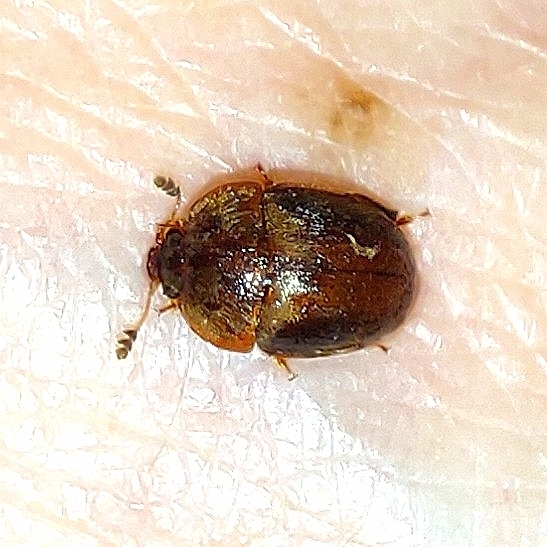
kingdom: Animalia
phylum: Arthropoda
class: Insecta
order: Coleoptera
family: Nitidulidae
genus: Cychramus
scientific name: Cychramus variegatus
